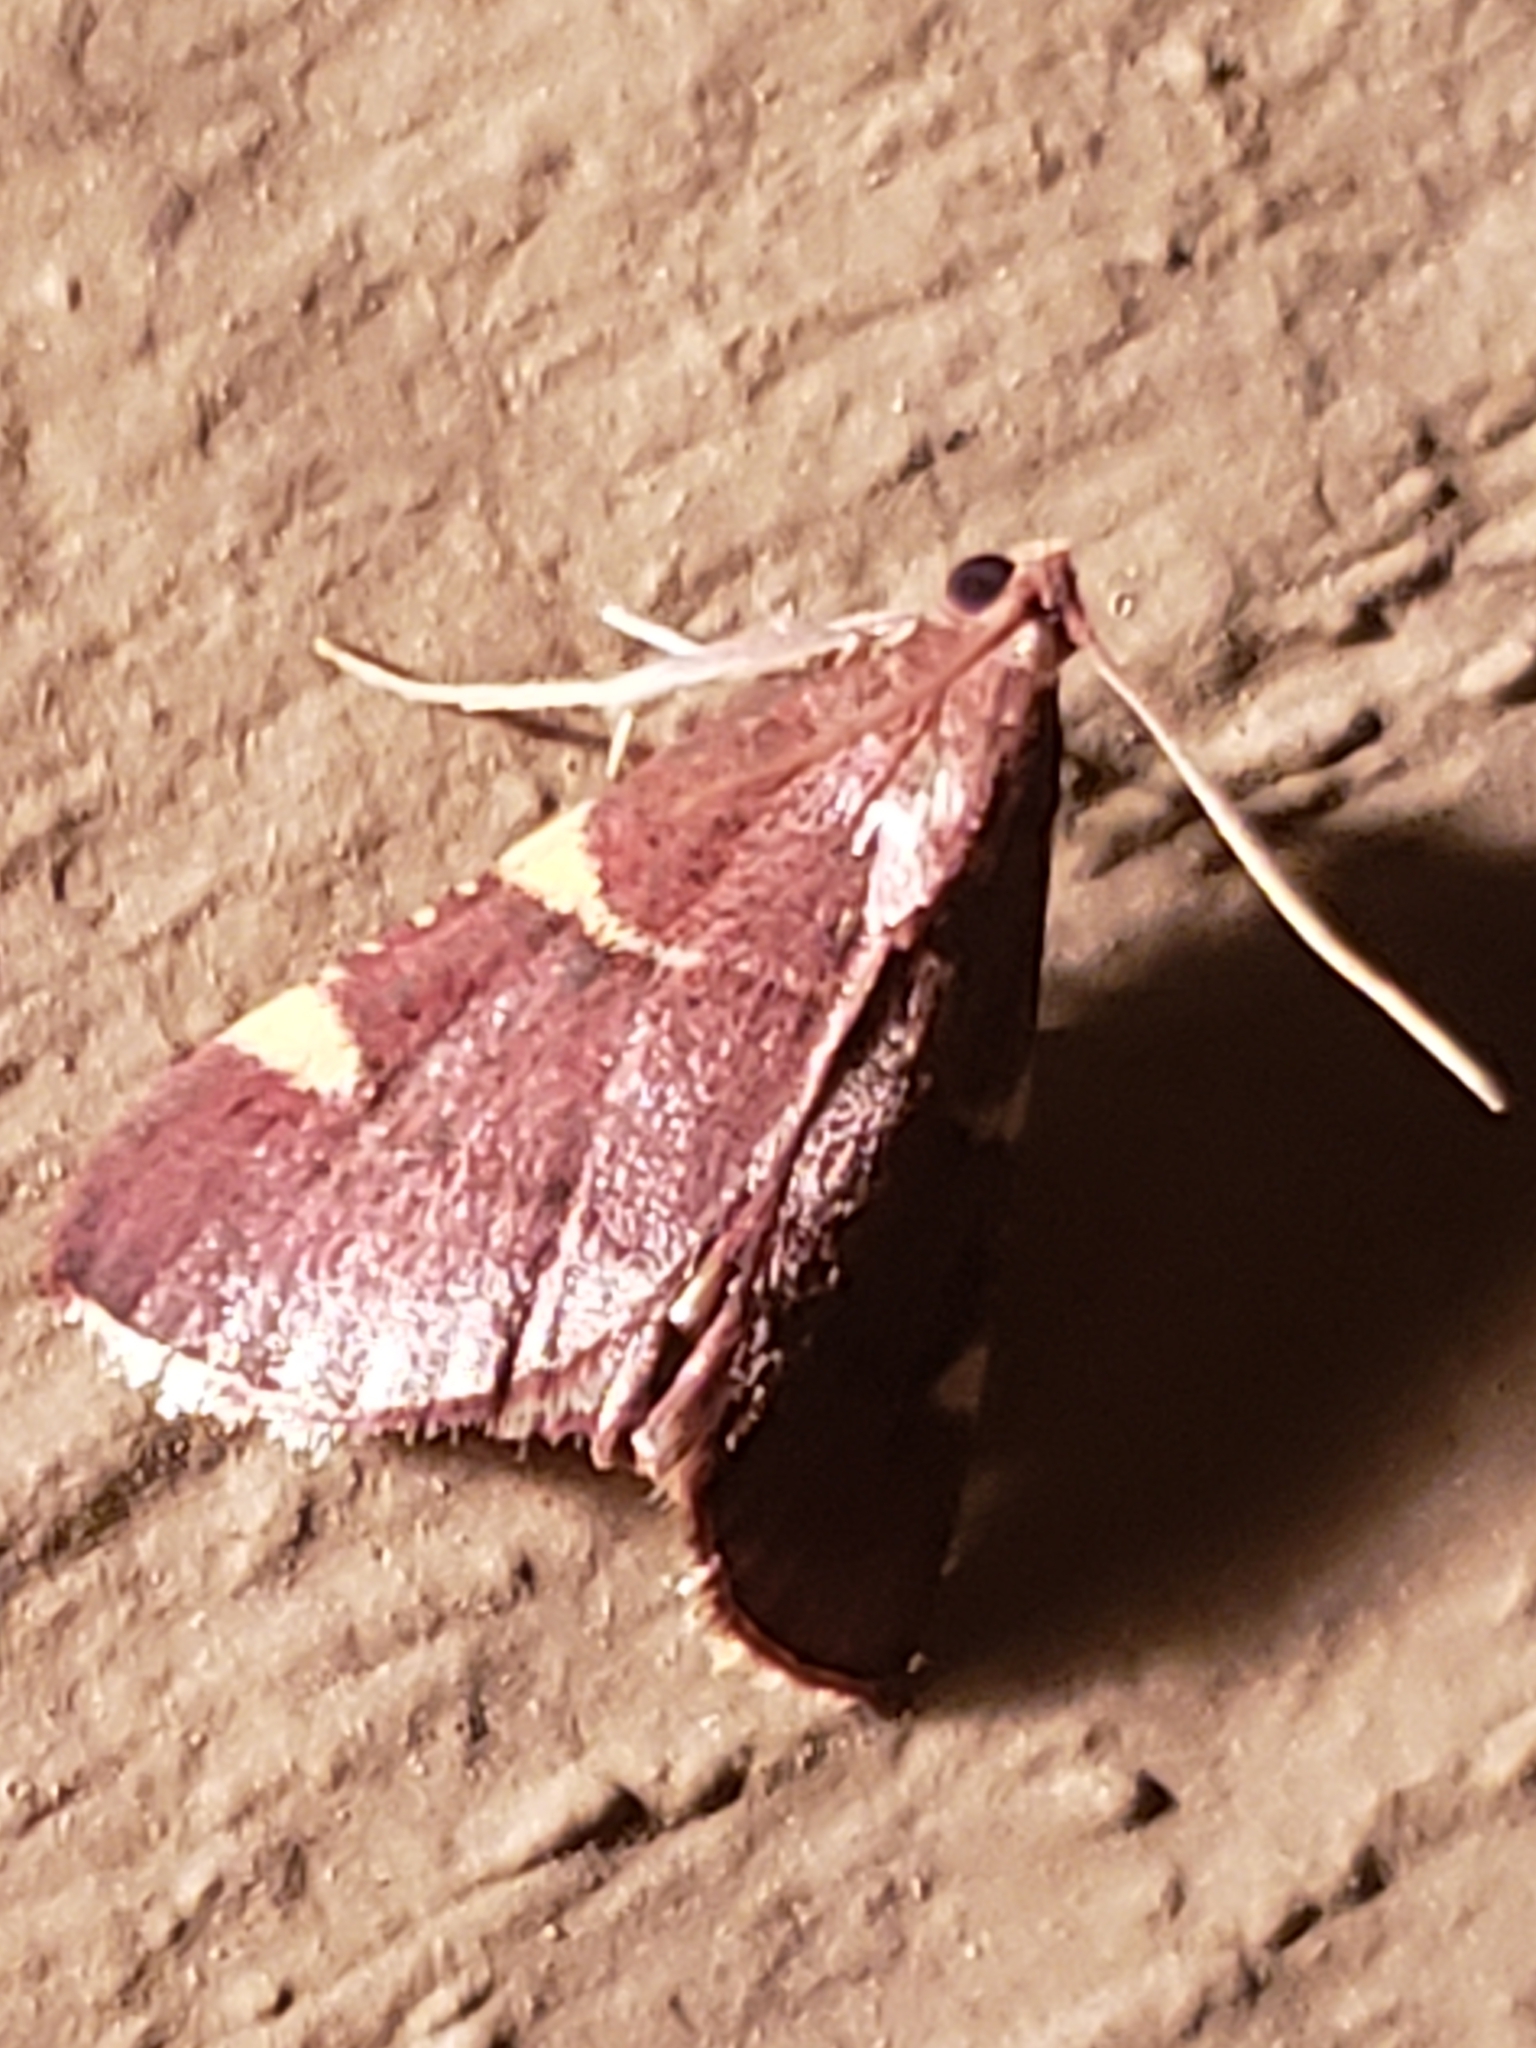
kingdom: Animalia
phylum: Arthropoda
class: Insecta
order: Lepidoptera
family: Pyralidae
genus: Hypsopygia
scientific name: Hypsopygia olinalis
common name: Yellow-fringed dolichomia moth
